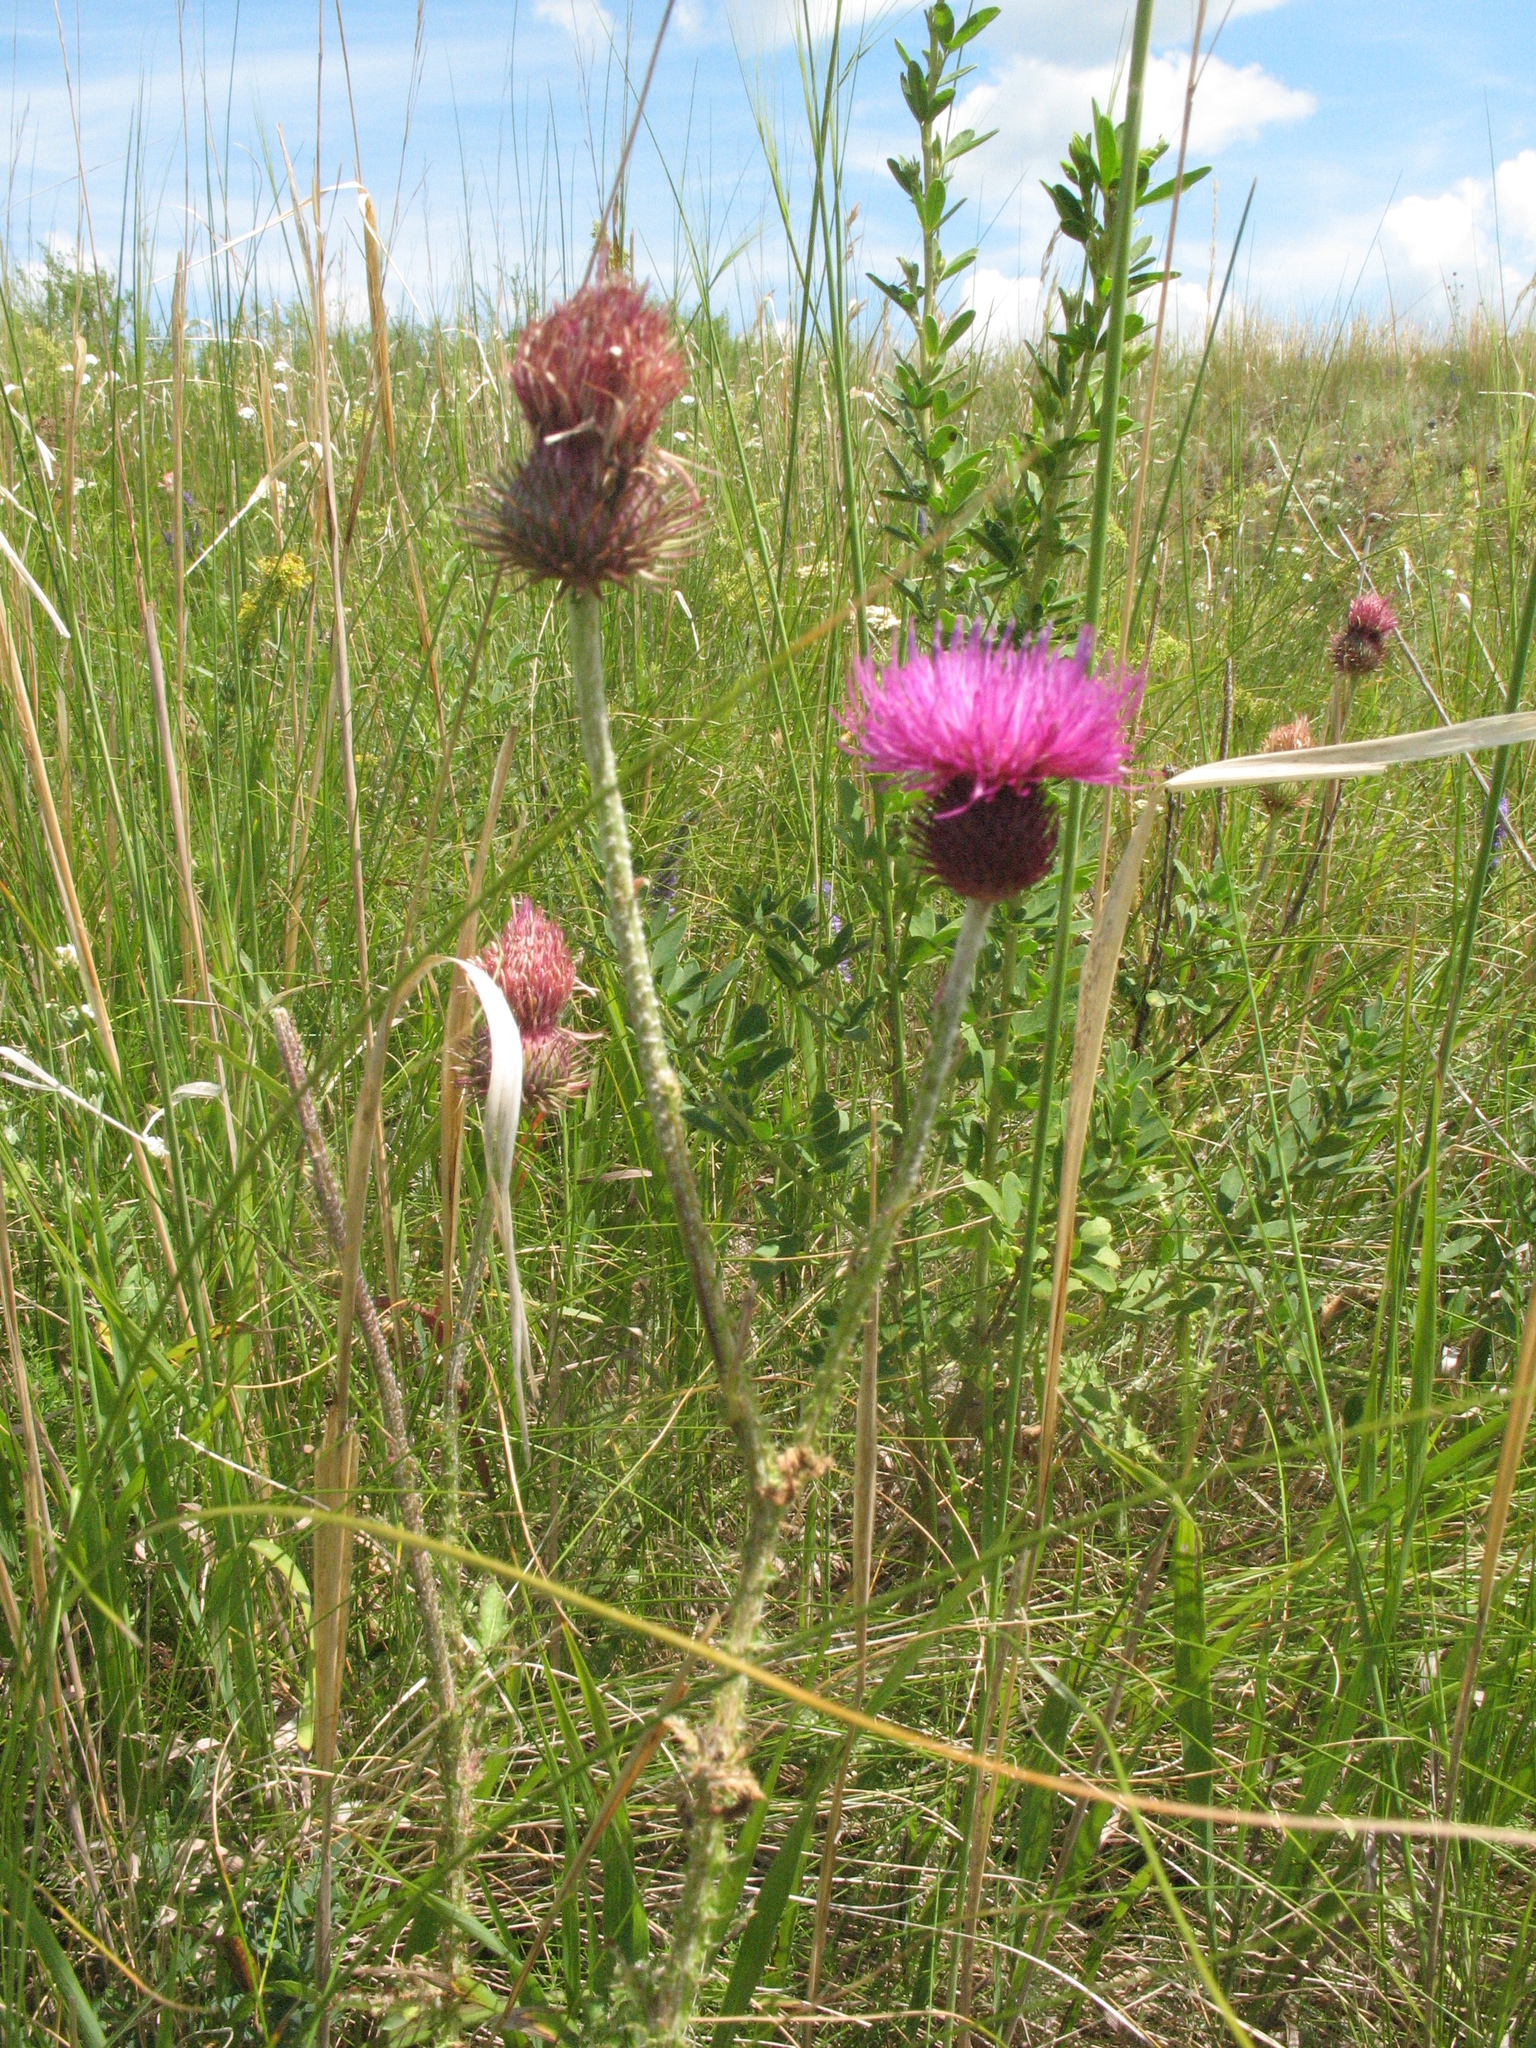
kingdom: Plantae
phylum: Tracheophyta
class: Magnoliopsida
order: Asterales
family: Asteraceae
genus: Carduus
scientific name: Carduus hamulosus
